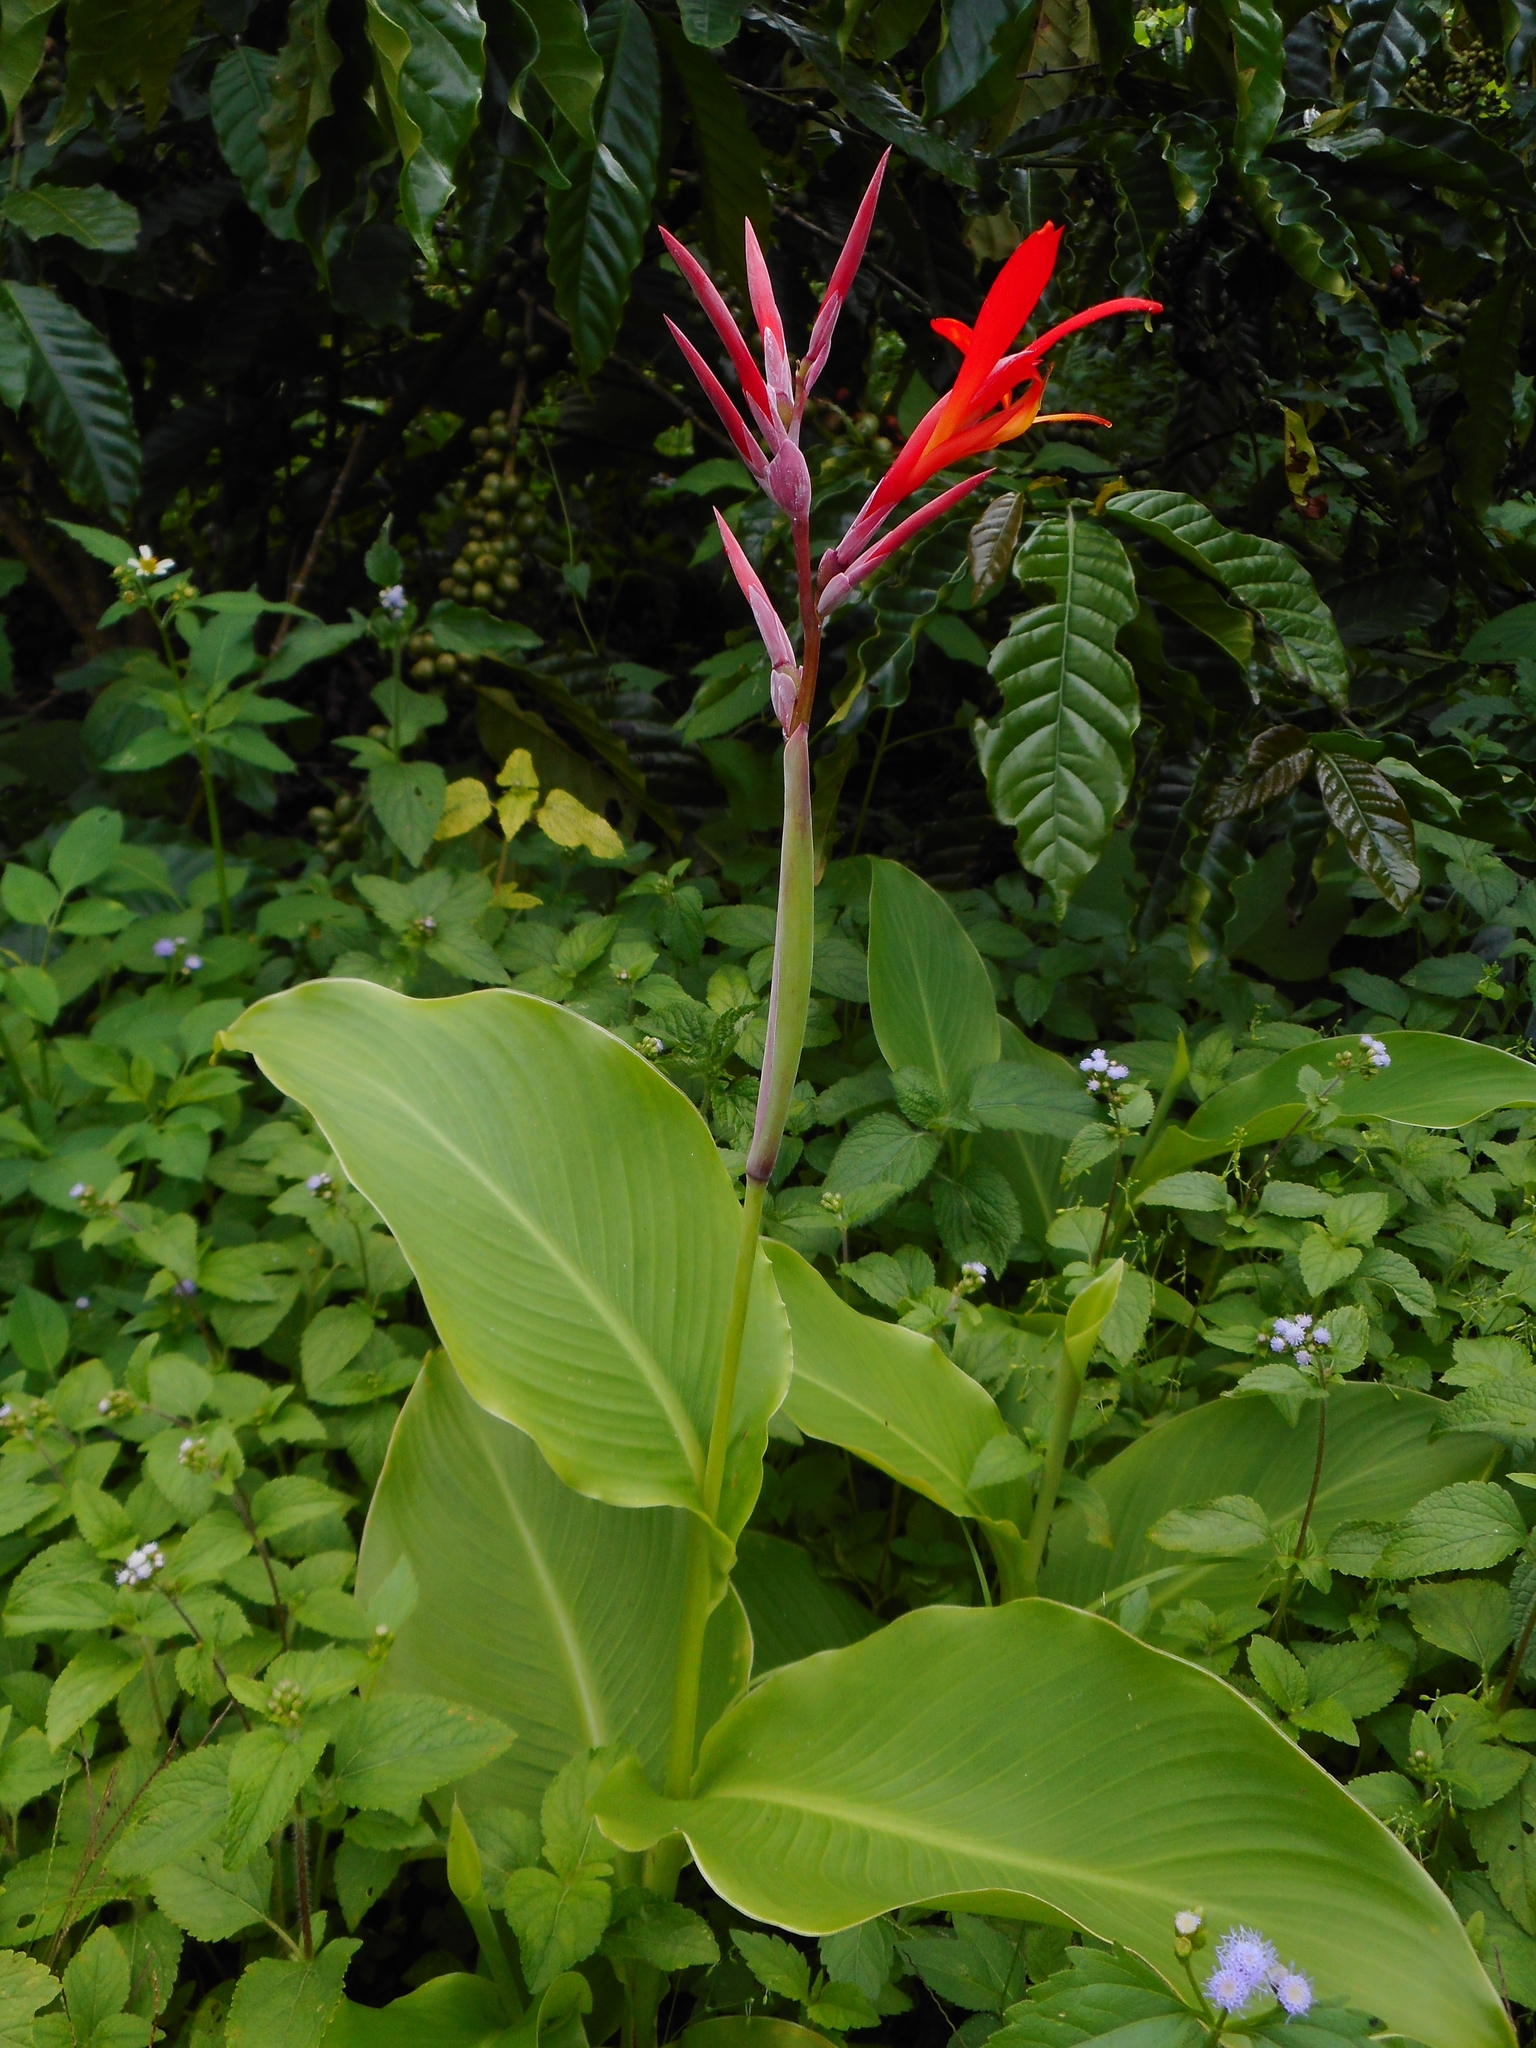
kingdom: Plantae
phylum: Tracheophyta
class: Liliopsida
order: Zingiberales
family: Cannaceae
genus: Canna
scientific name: Canna indica
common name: Indian shot
